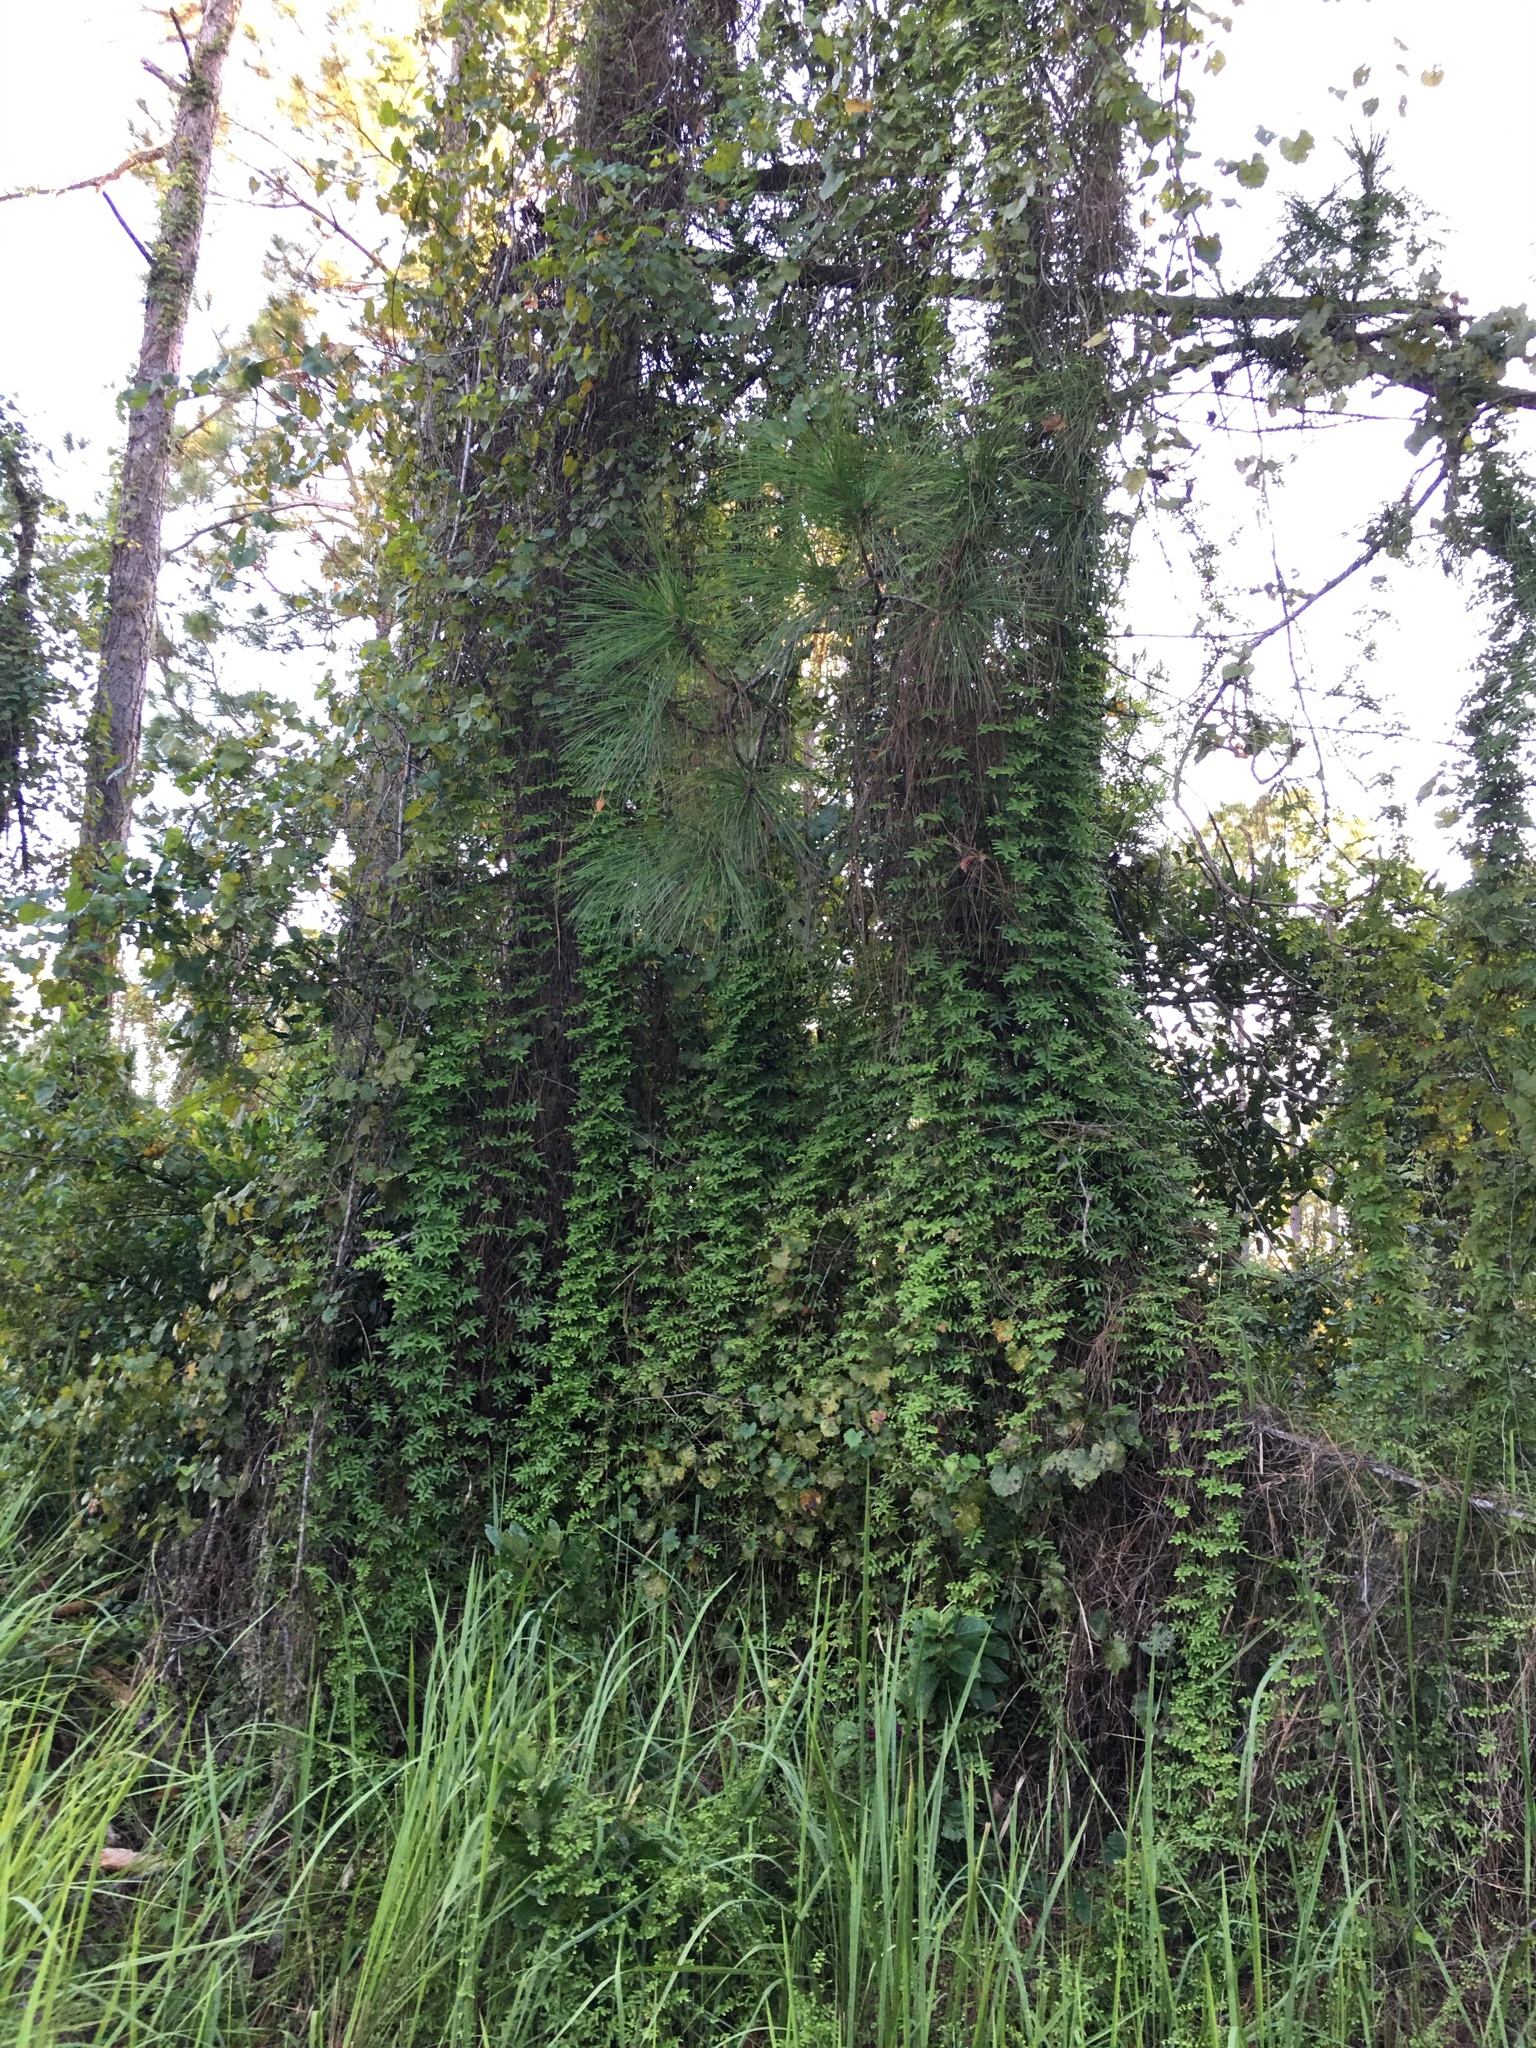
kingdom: Plantae
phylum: Tracheophyta
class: Polypodiopsida
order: Schizaeales
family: Lygodiaceae
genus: Lygodium
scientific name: Lygodium microphyllum
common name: Small-leaf climbing fern
